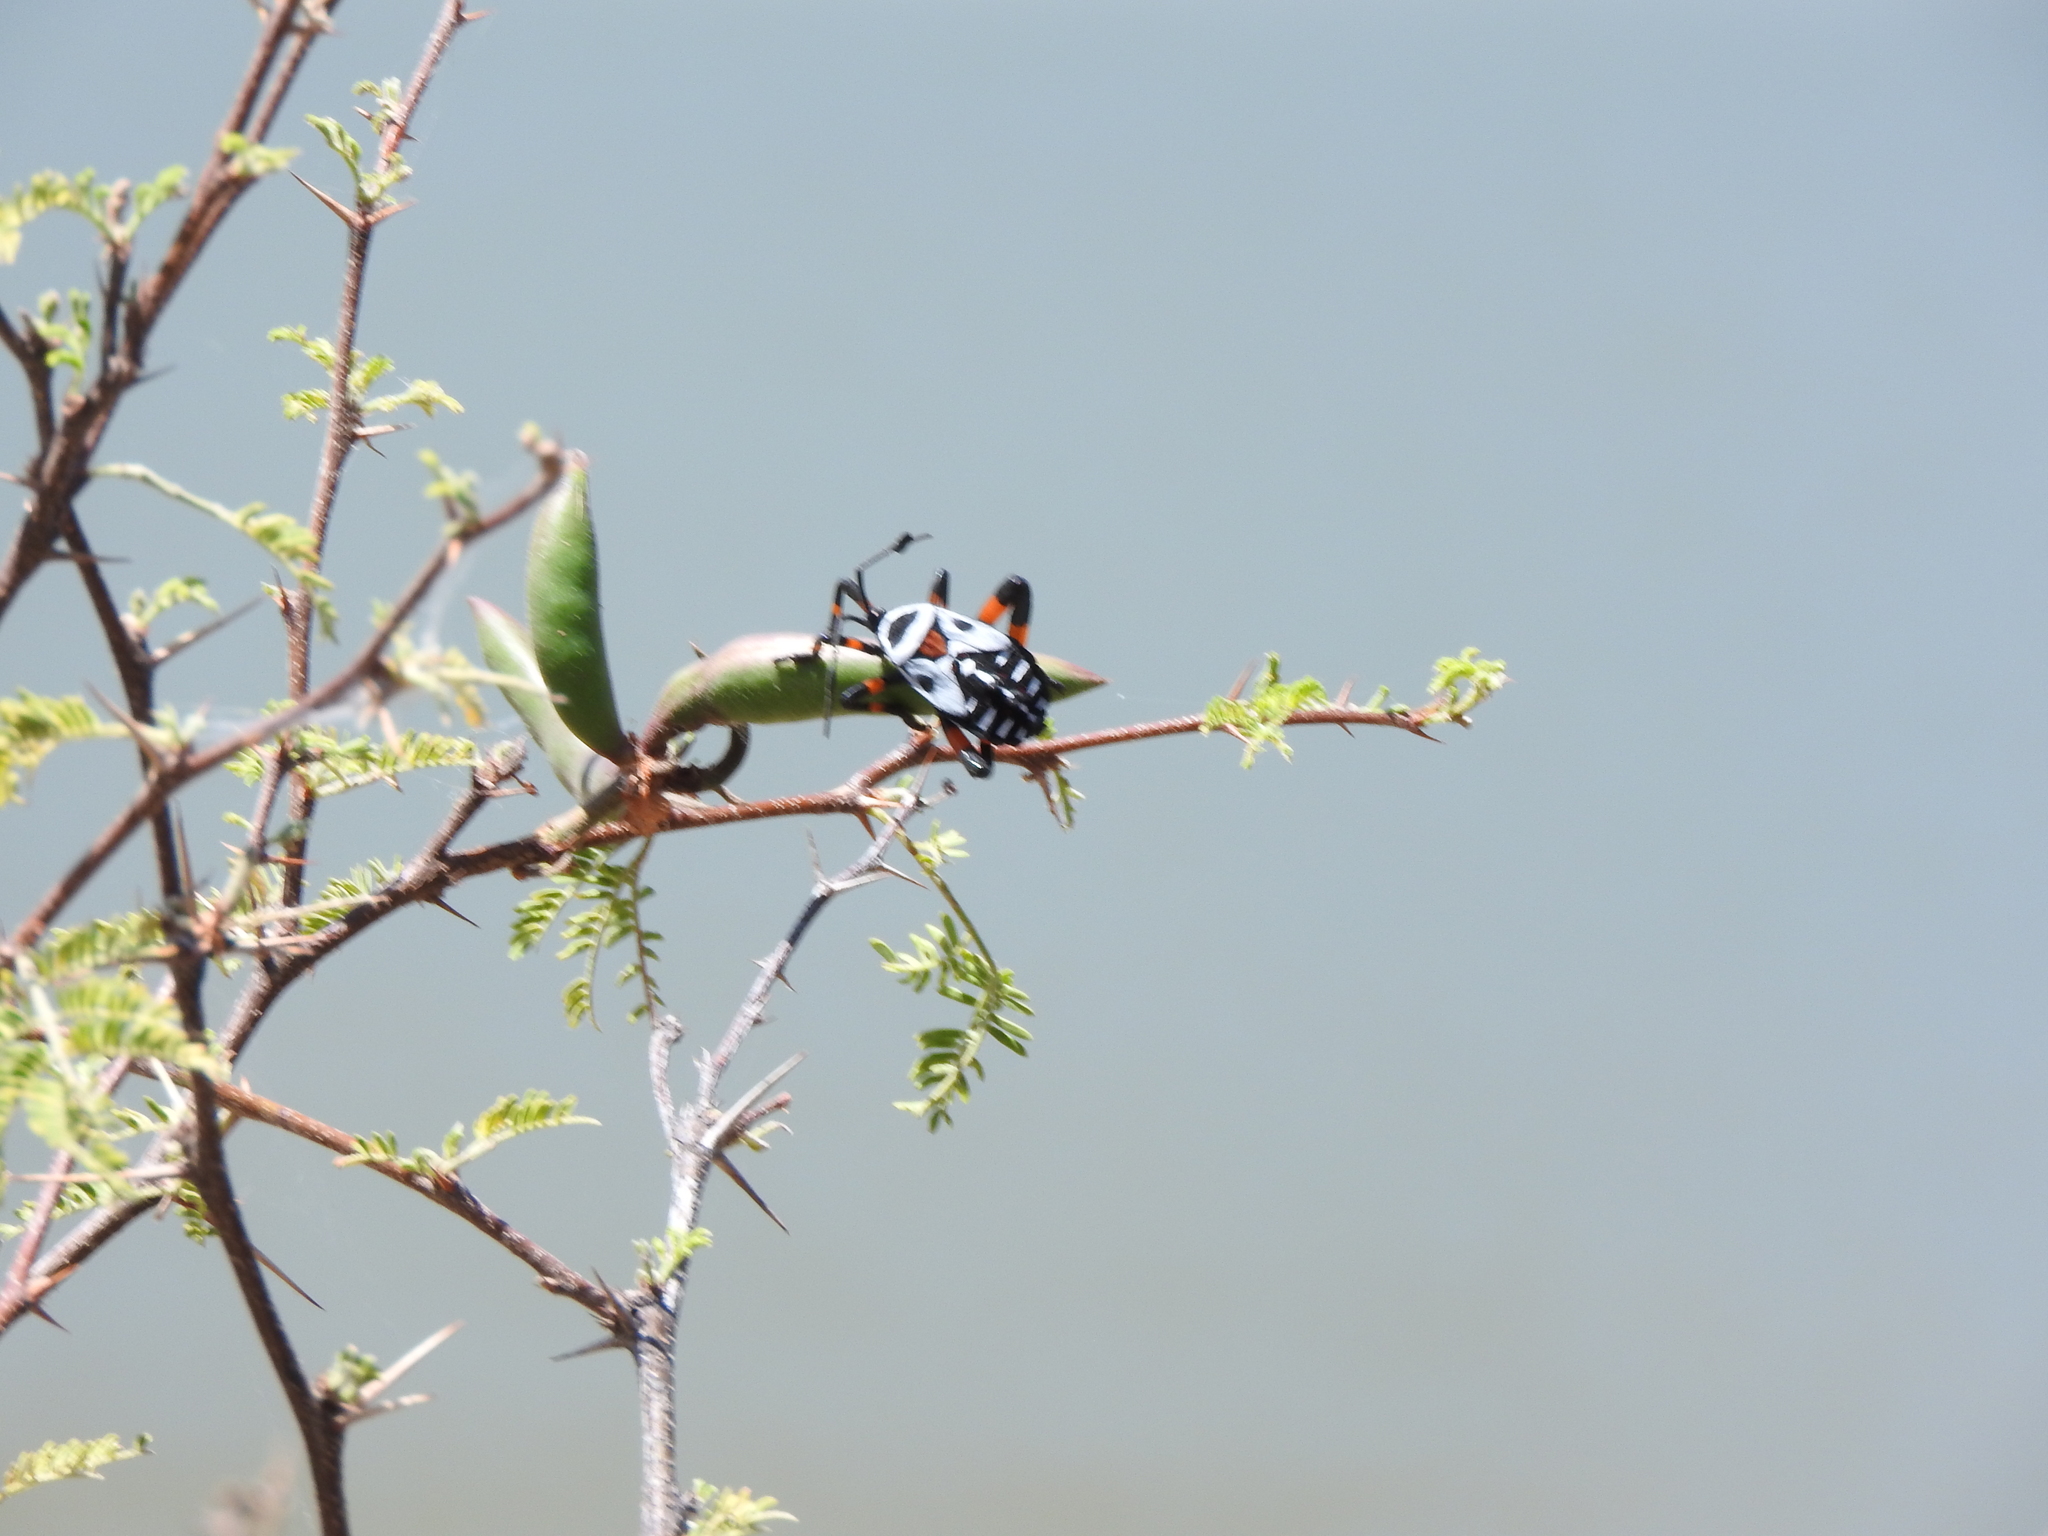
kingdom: Animalia
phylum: Arthropoda
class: Insecta
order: Hemiptera
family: Coreidae
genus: Thasus
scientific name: Thasus
